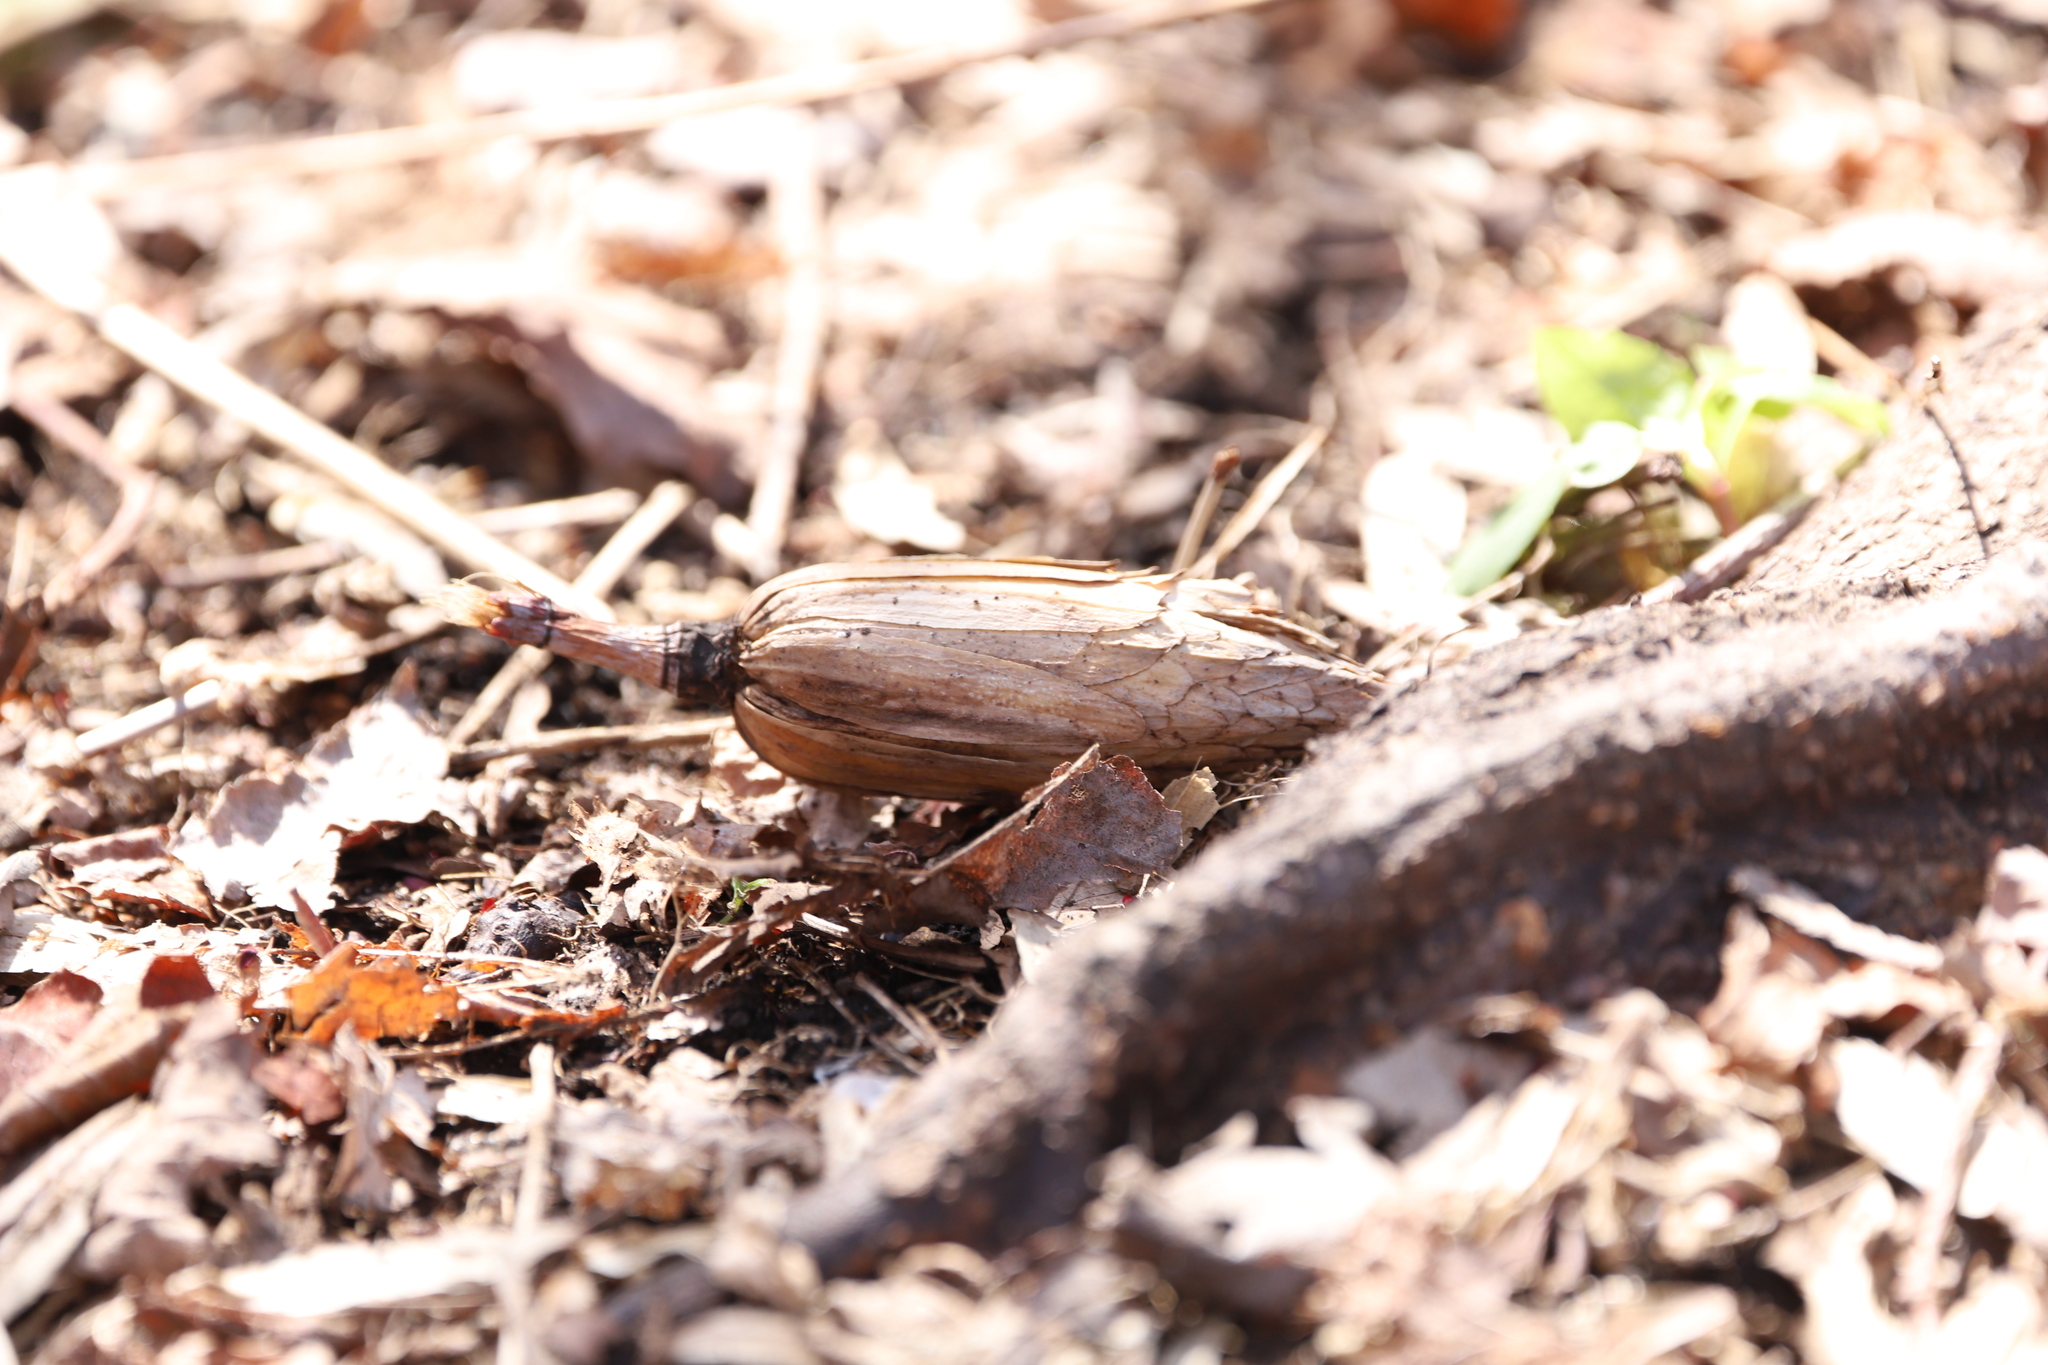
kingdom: Plantae
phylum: Tracheophyta
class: Magnoliopsida
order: Magnoliales
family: Magnoliaceae
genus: Liriodendron
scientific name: Liriodendron tulipifera
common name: Tulip tree
